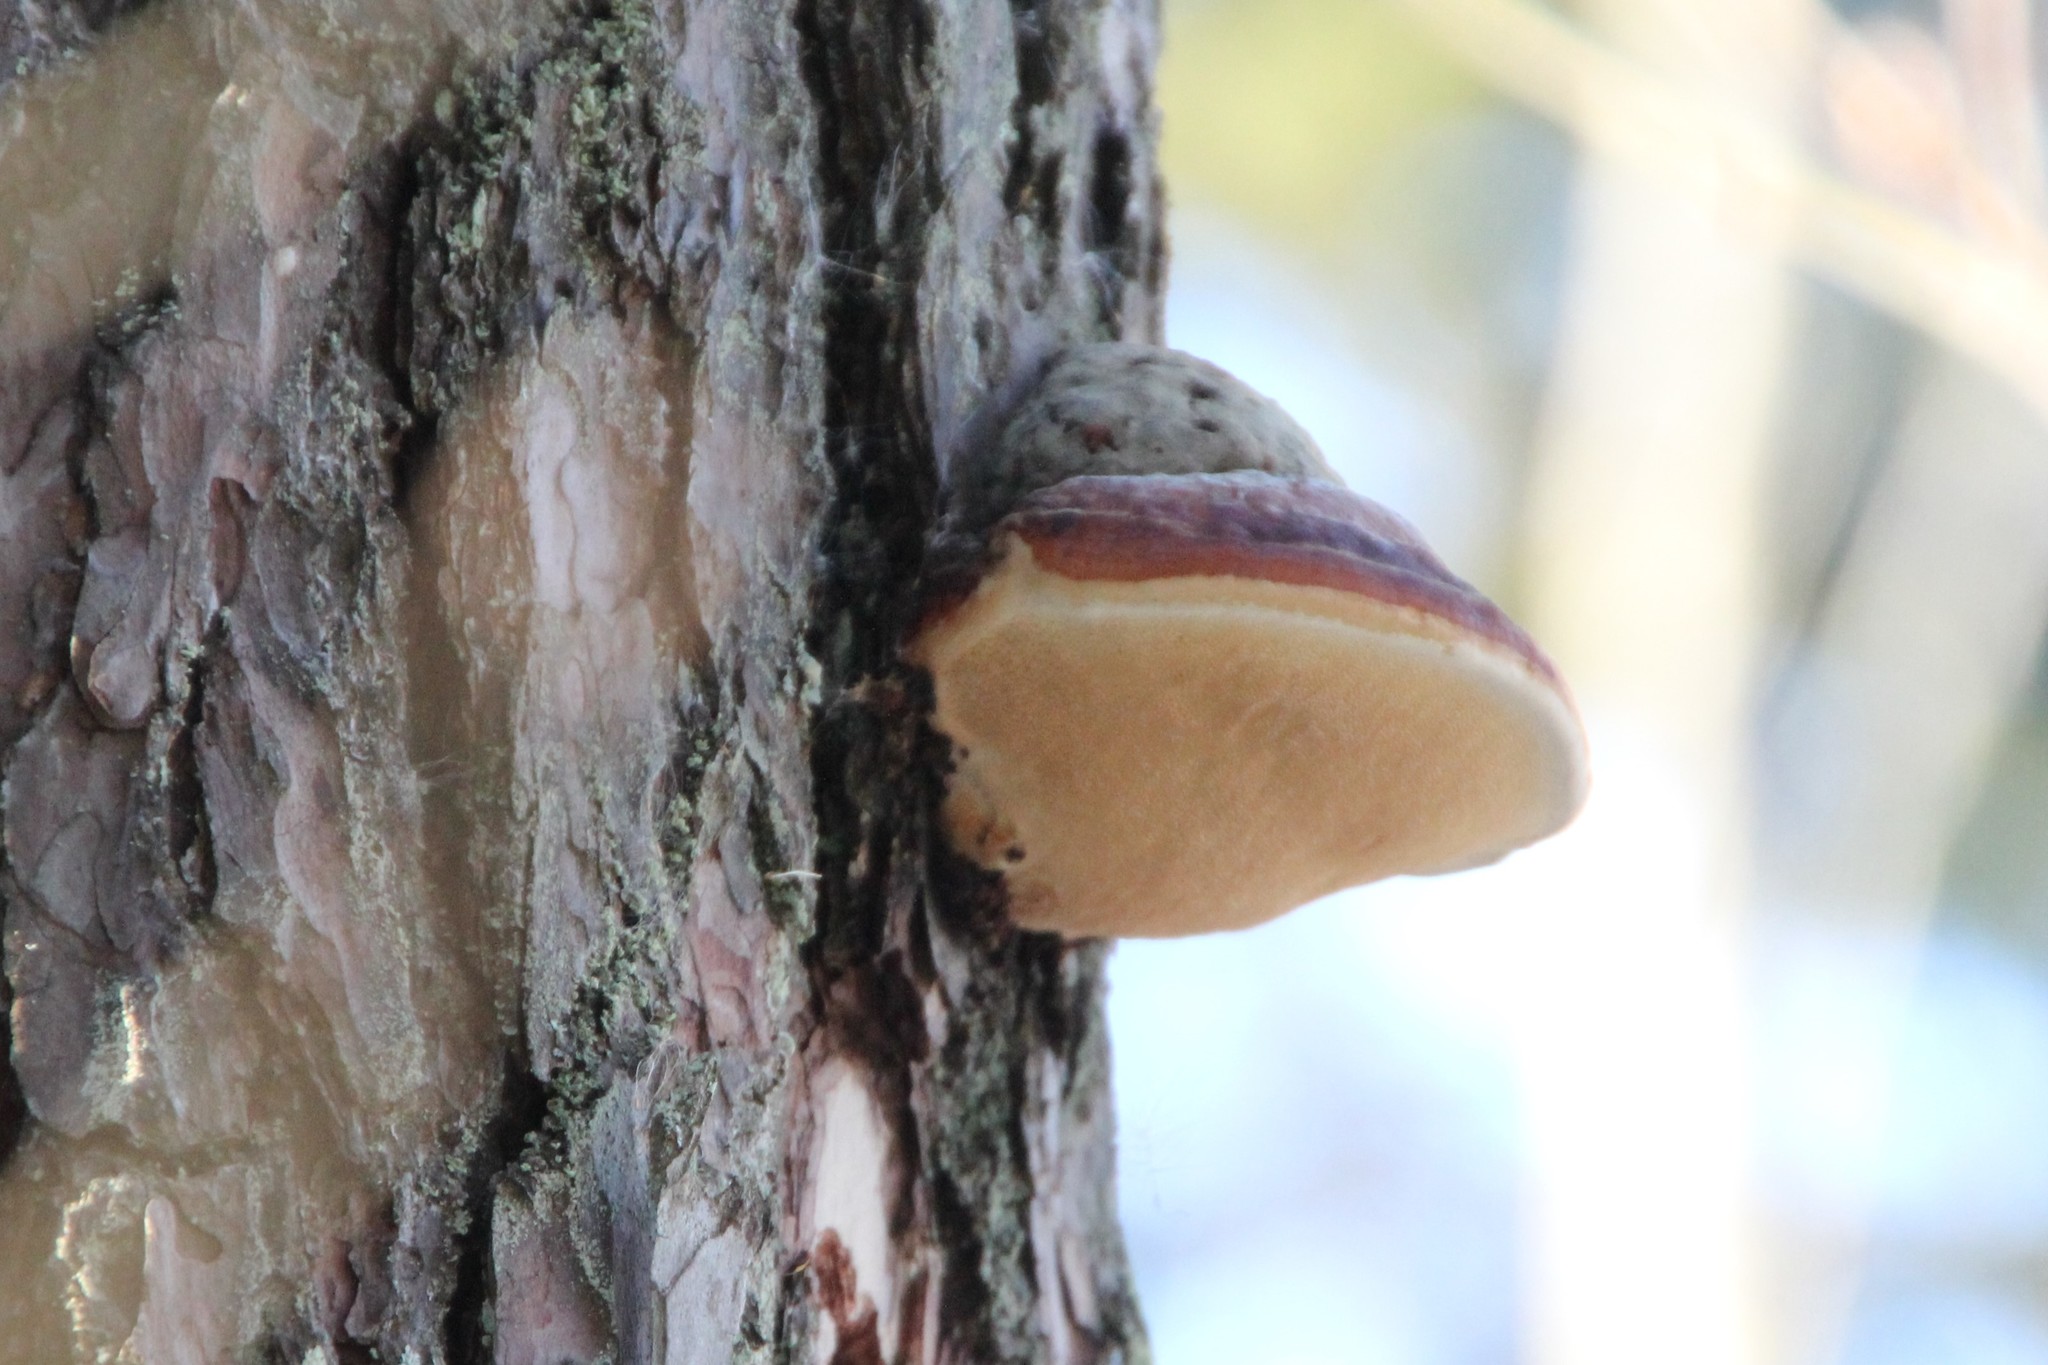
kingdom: Fungi
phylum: Basidiomycota
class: Agaricomycetes
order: Polyporales
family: Fomitopsidaceae
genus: Fomitopsis
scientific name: Fomitopsis pinicola
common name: Red-belted bracket
